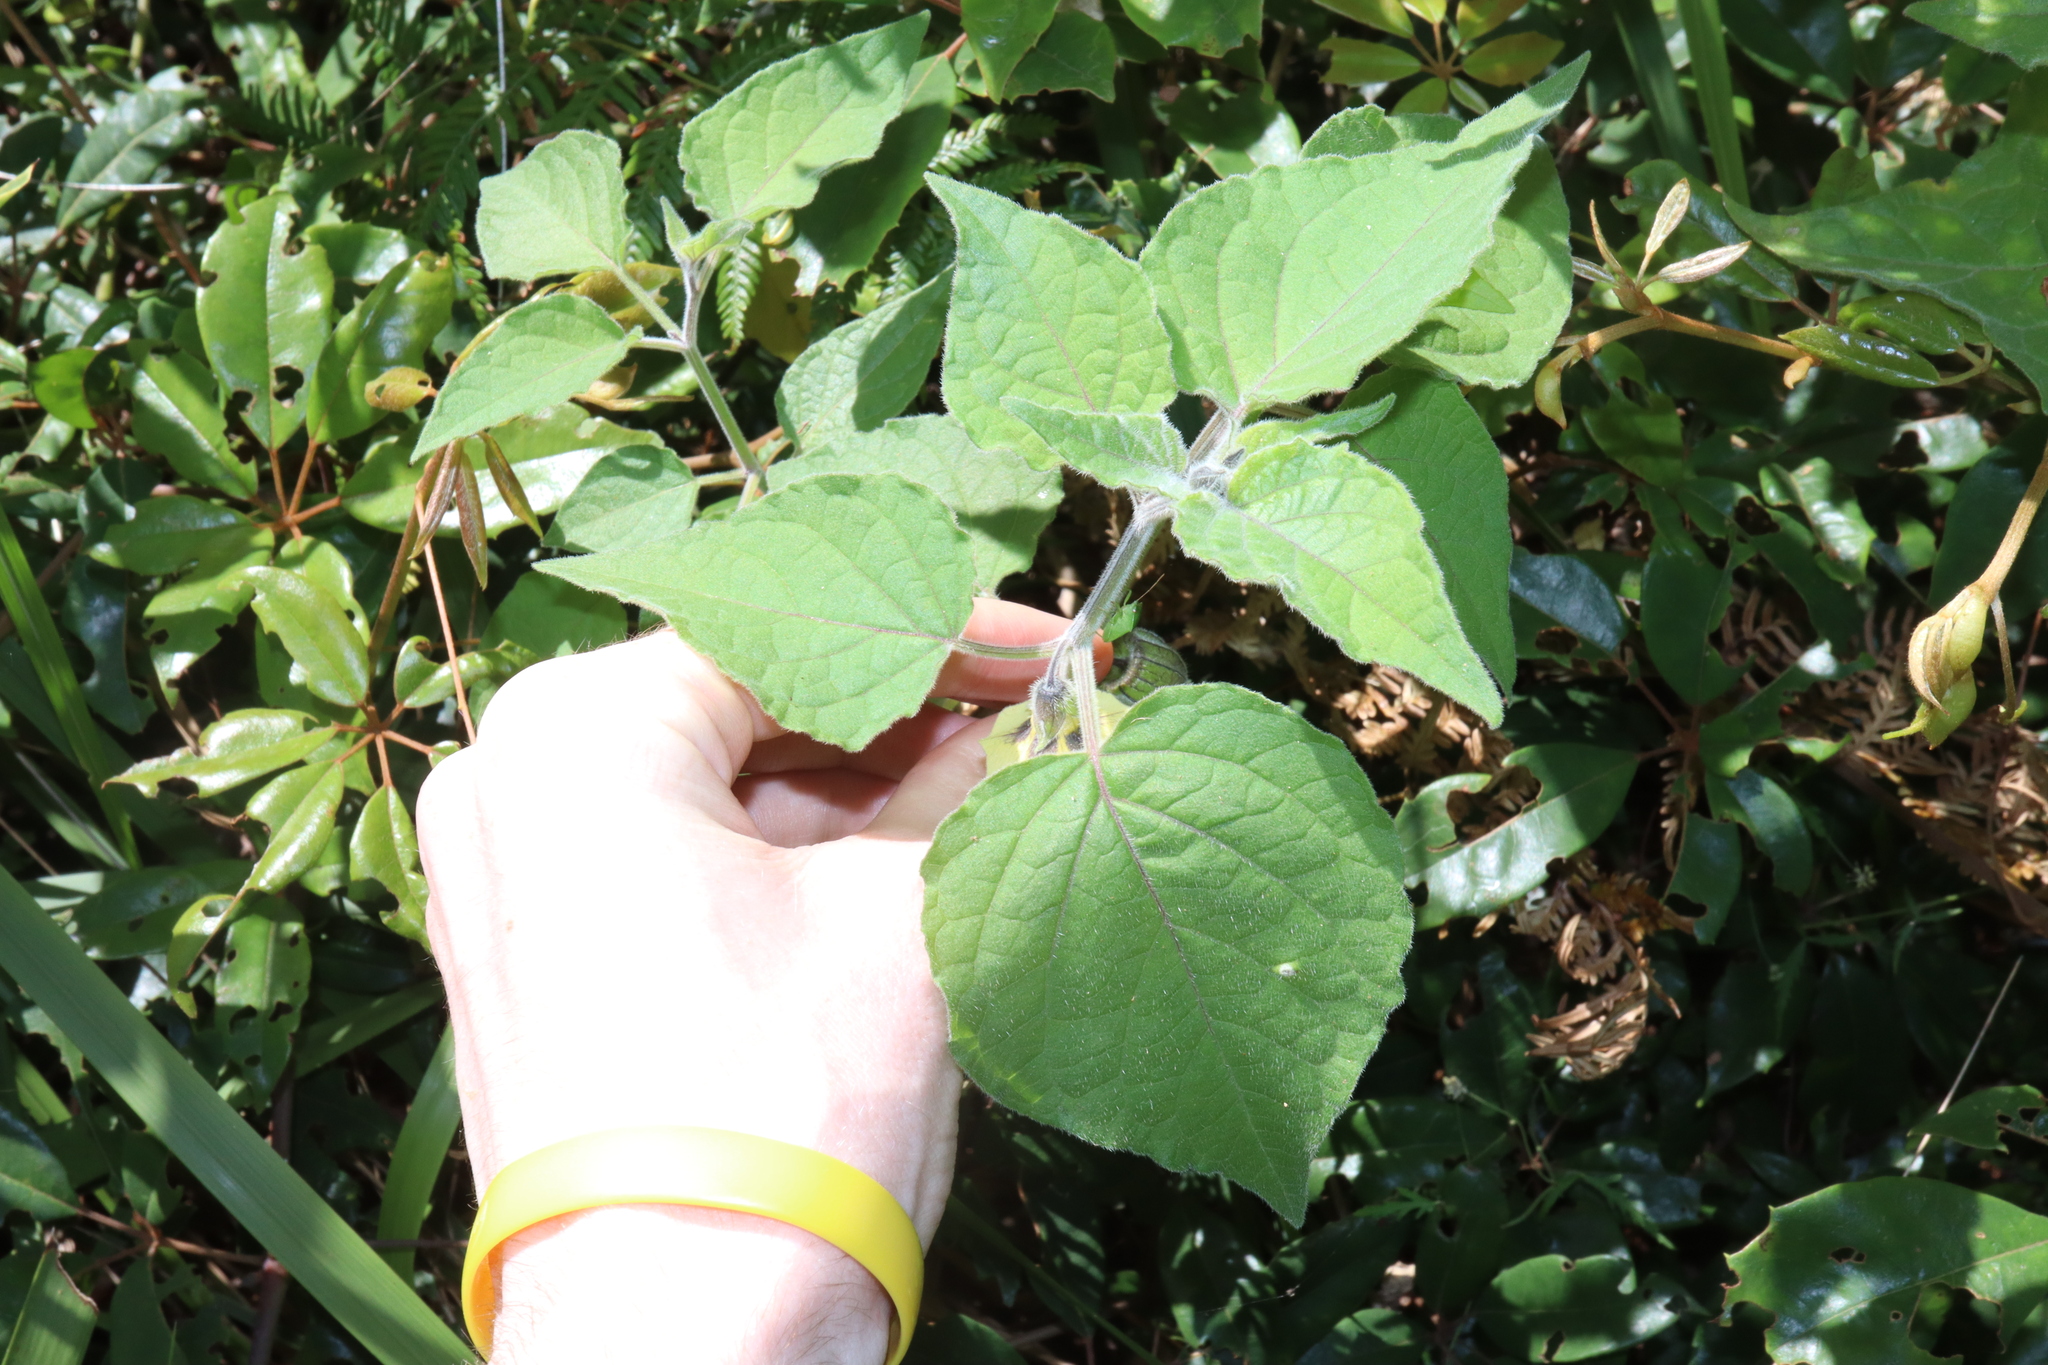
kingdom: Plantae
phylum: Tracheophyta
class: Magnoliopsida
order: Solanales
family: Solanaceae
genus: Physalis
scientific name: Physalis peruviana
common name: Cape-gooseberry
